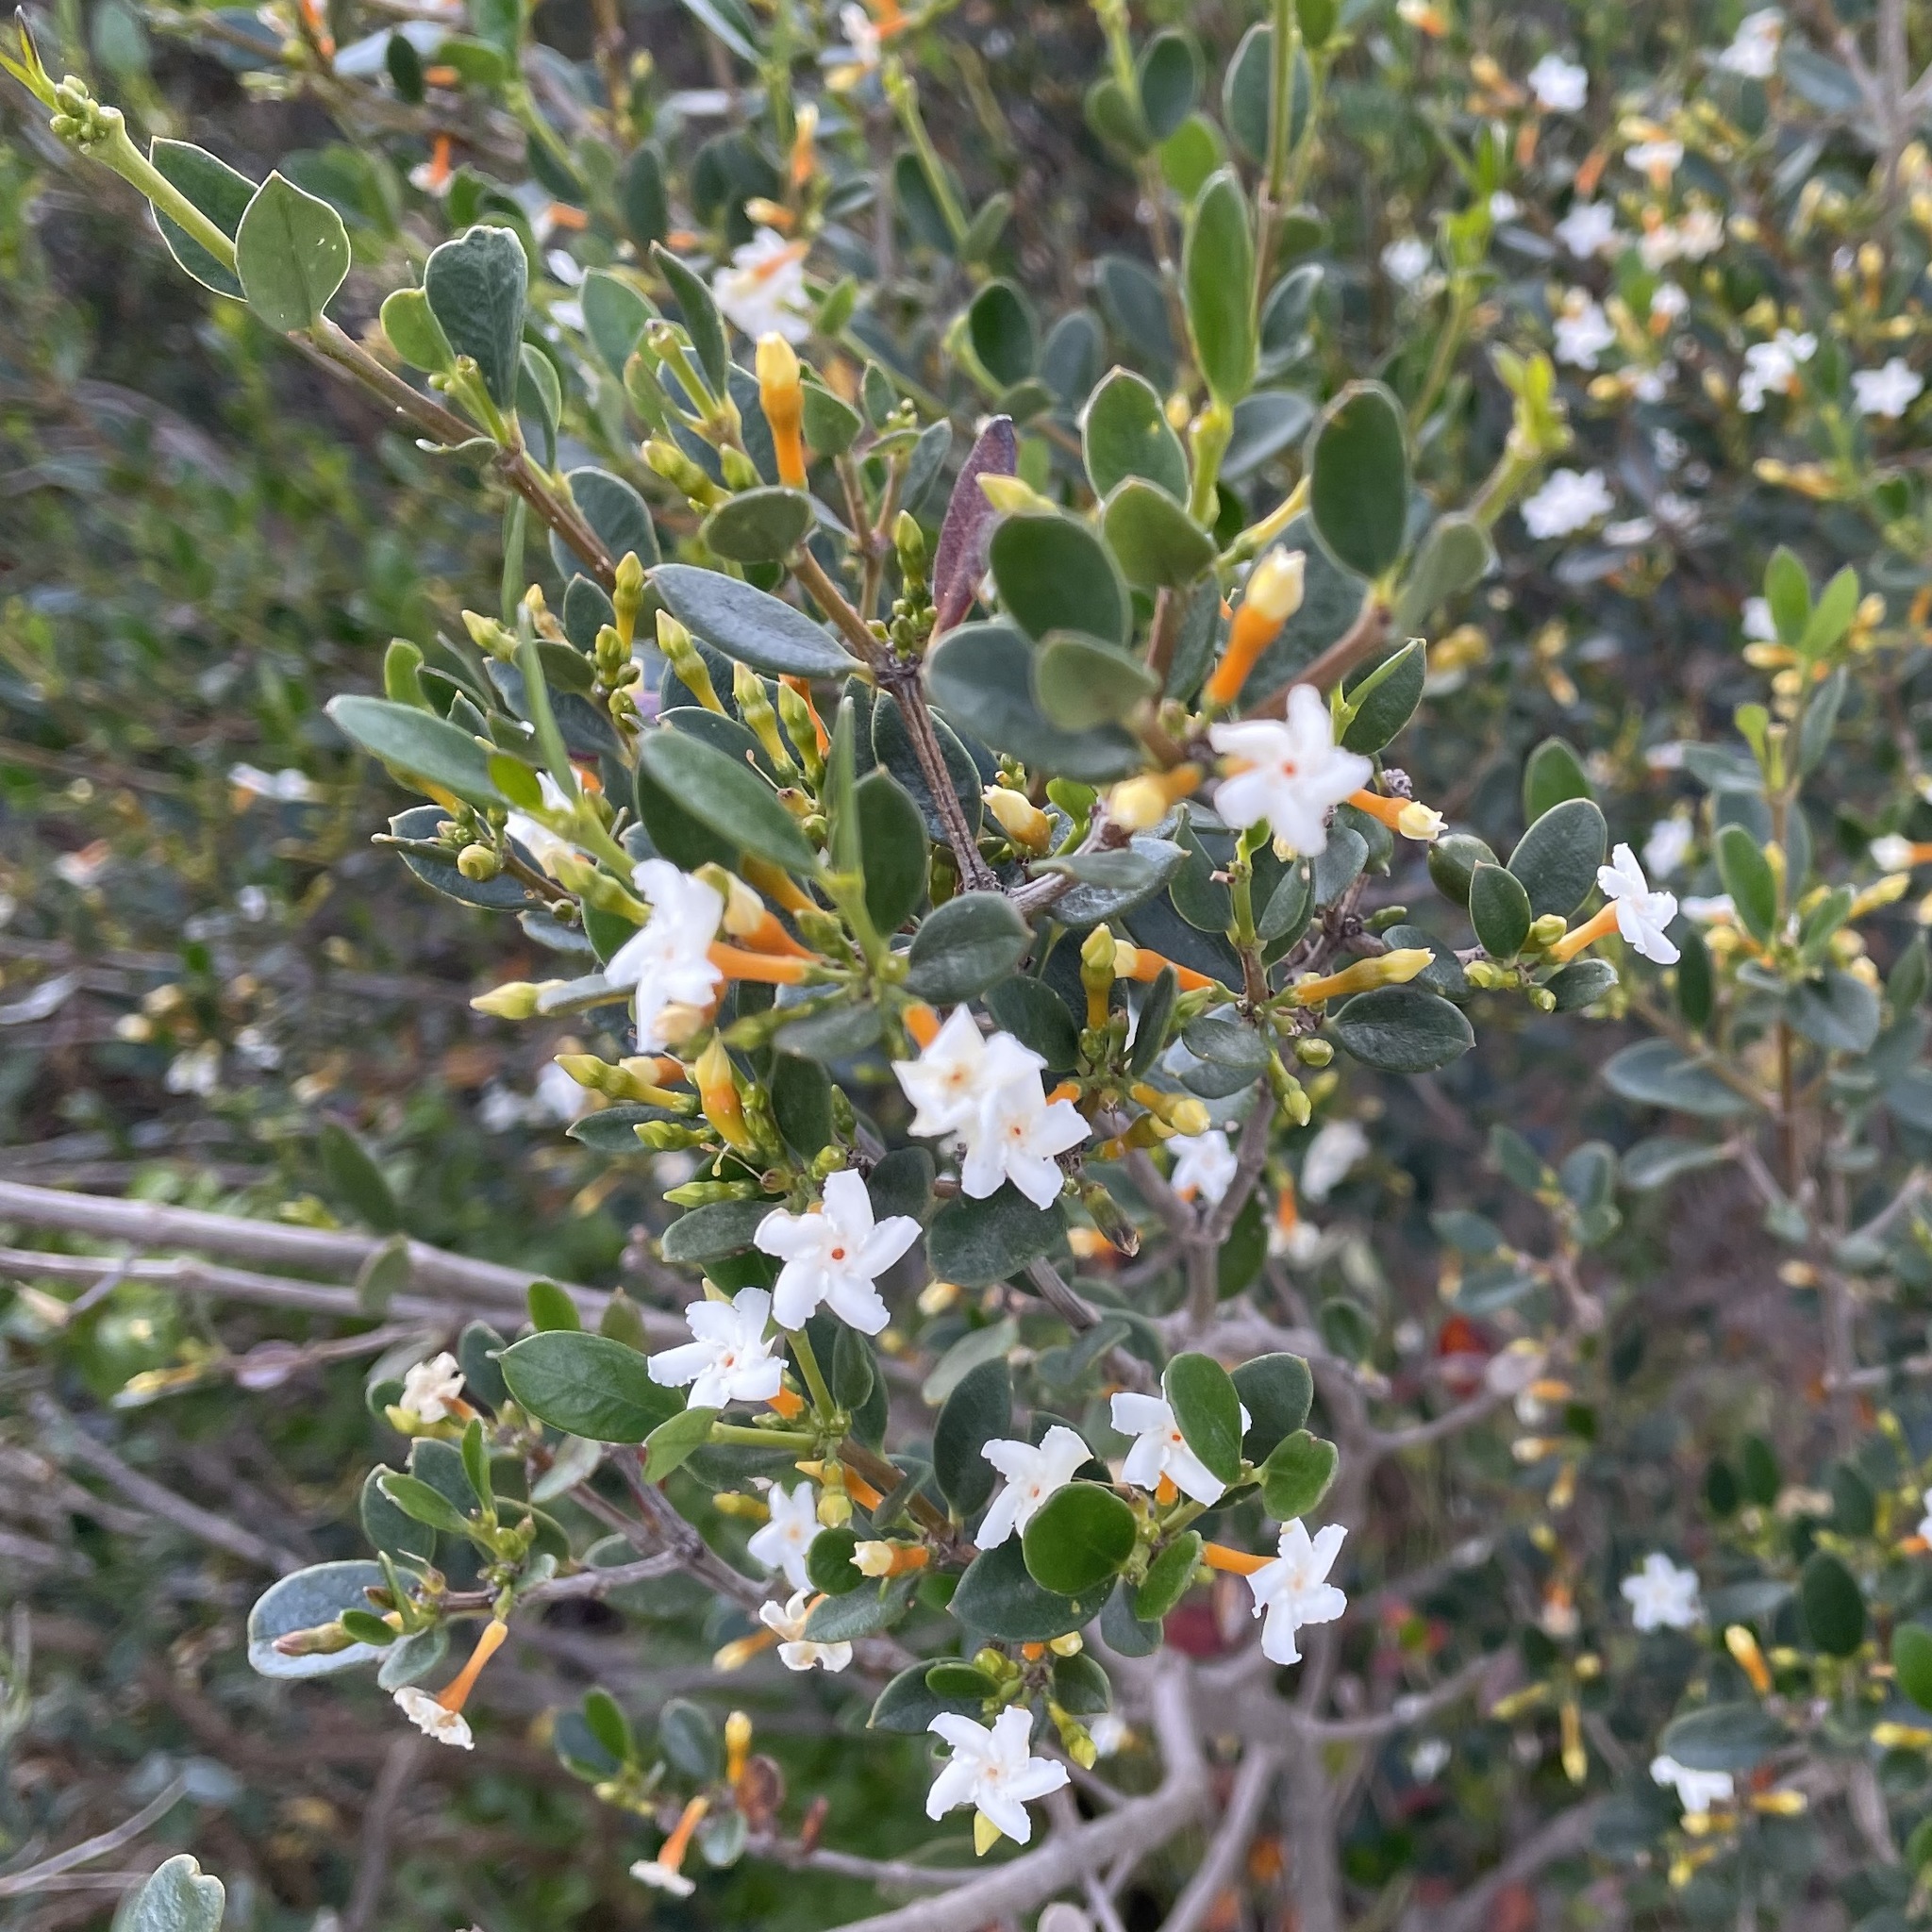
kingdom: Plantae
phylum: Tracheophyta
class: Magnoliopsida
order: Gentianales
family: Apocynaceae
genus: Alyxia
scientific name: Alyxia buxifolia
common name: Dysentery-bush
